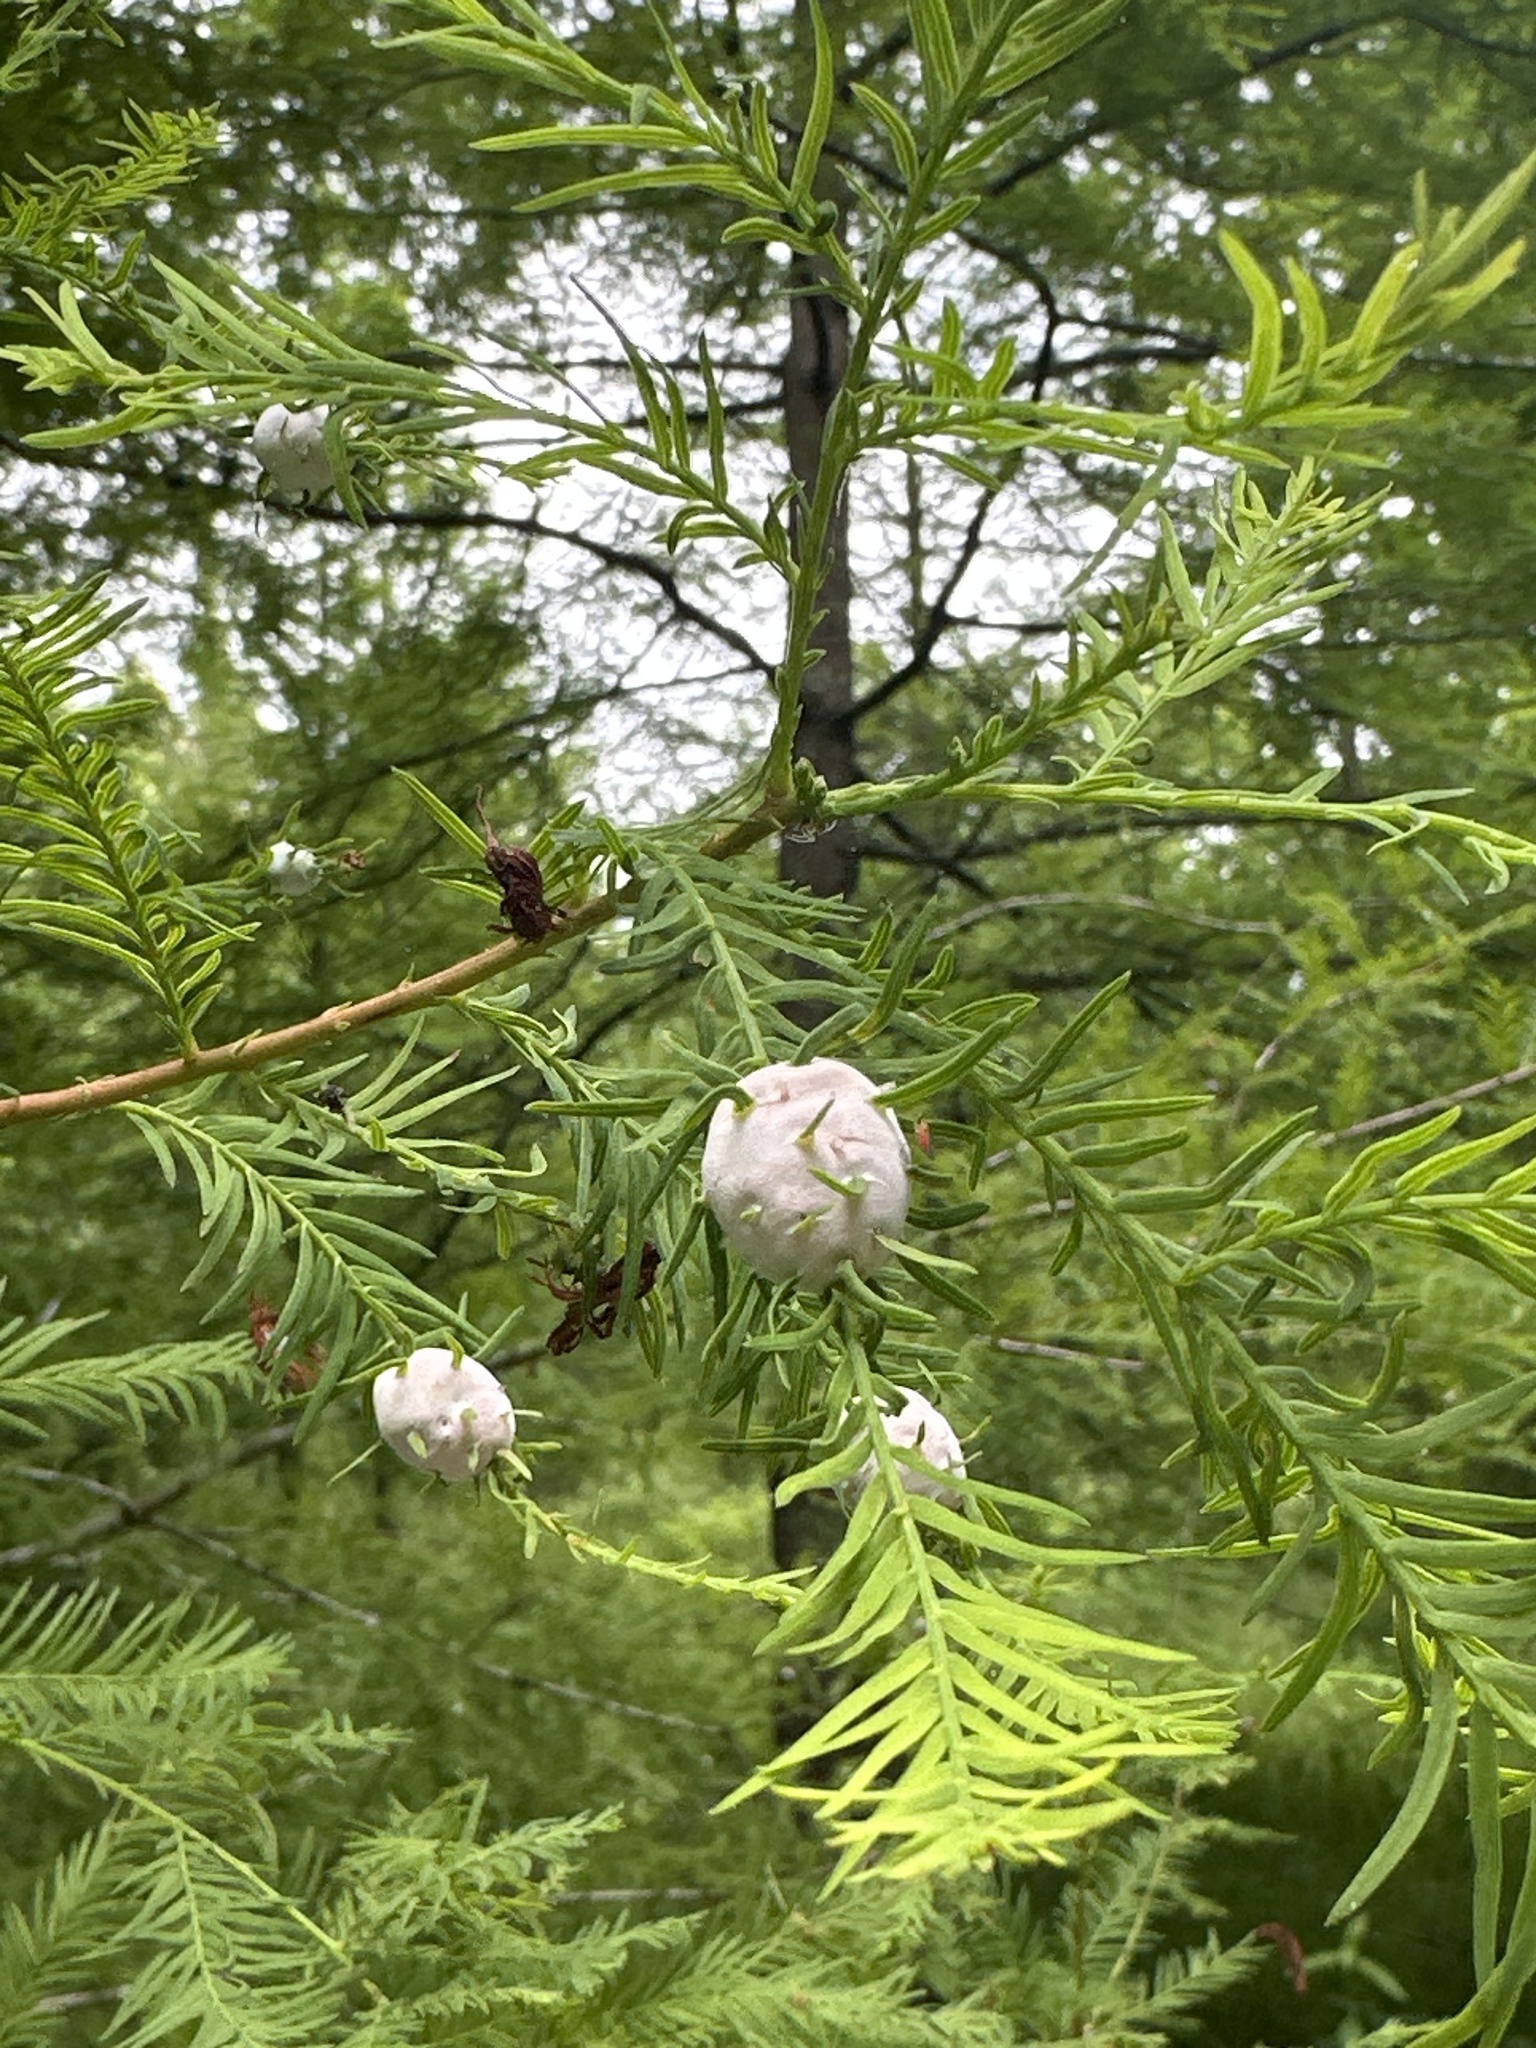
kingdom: Animalia
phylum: Arthropoda
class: Insecta
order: Diptera
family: Cecidomyiidae
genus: Taxodiomyia
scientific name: Taxodiomyia cupressiananassa
